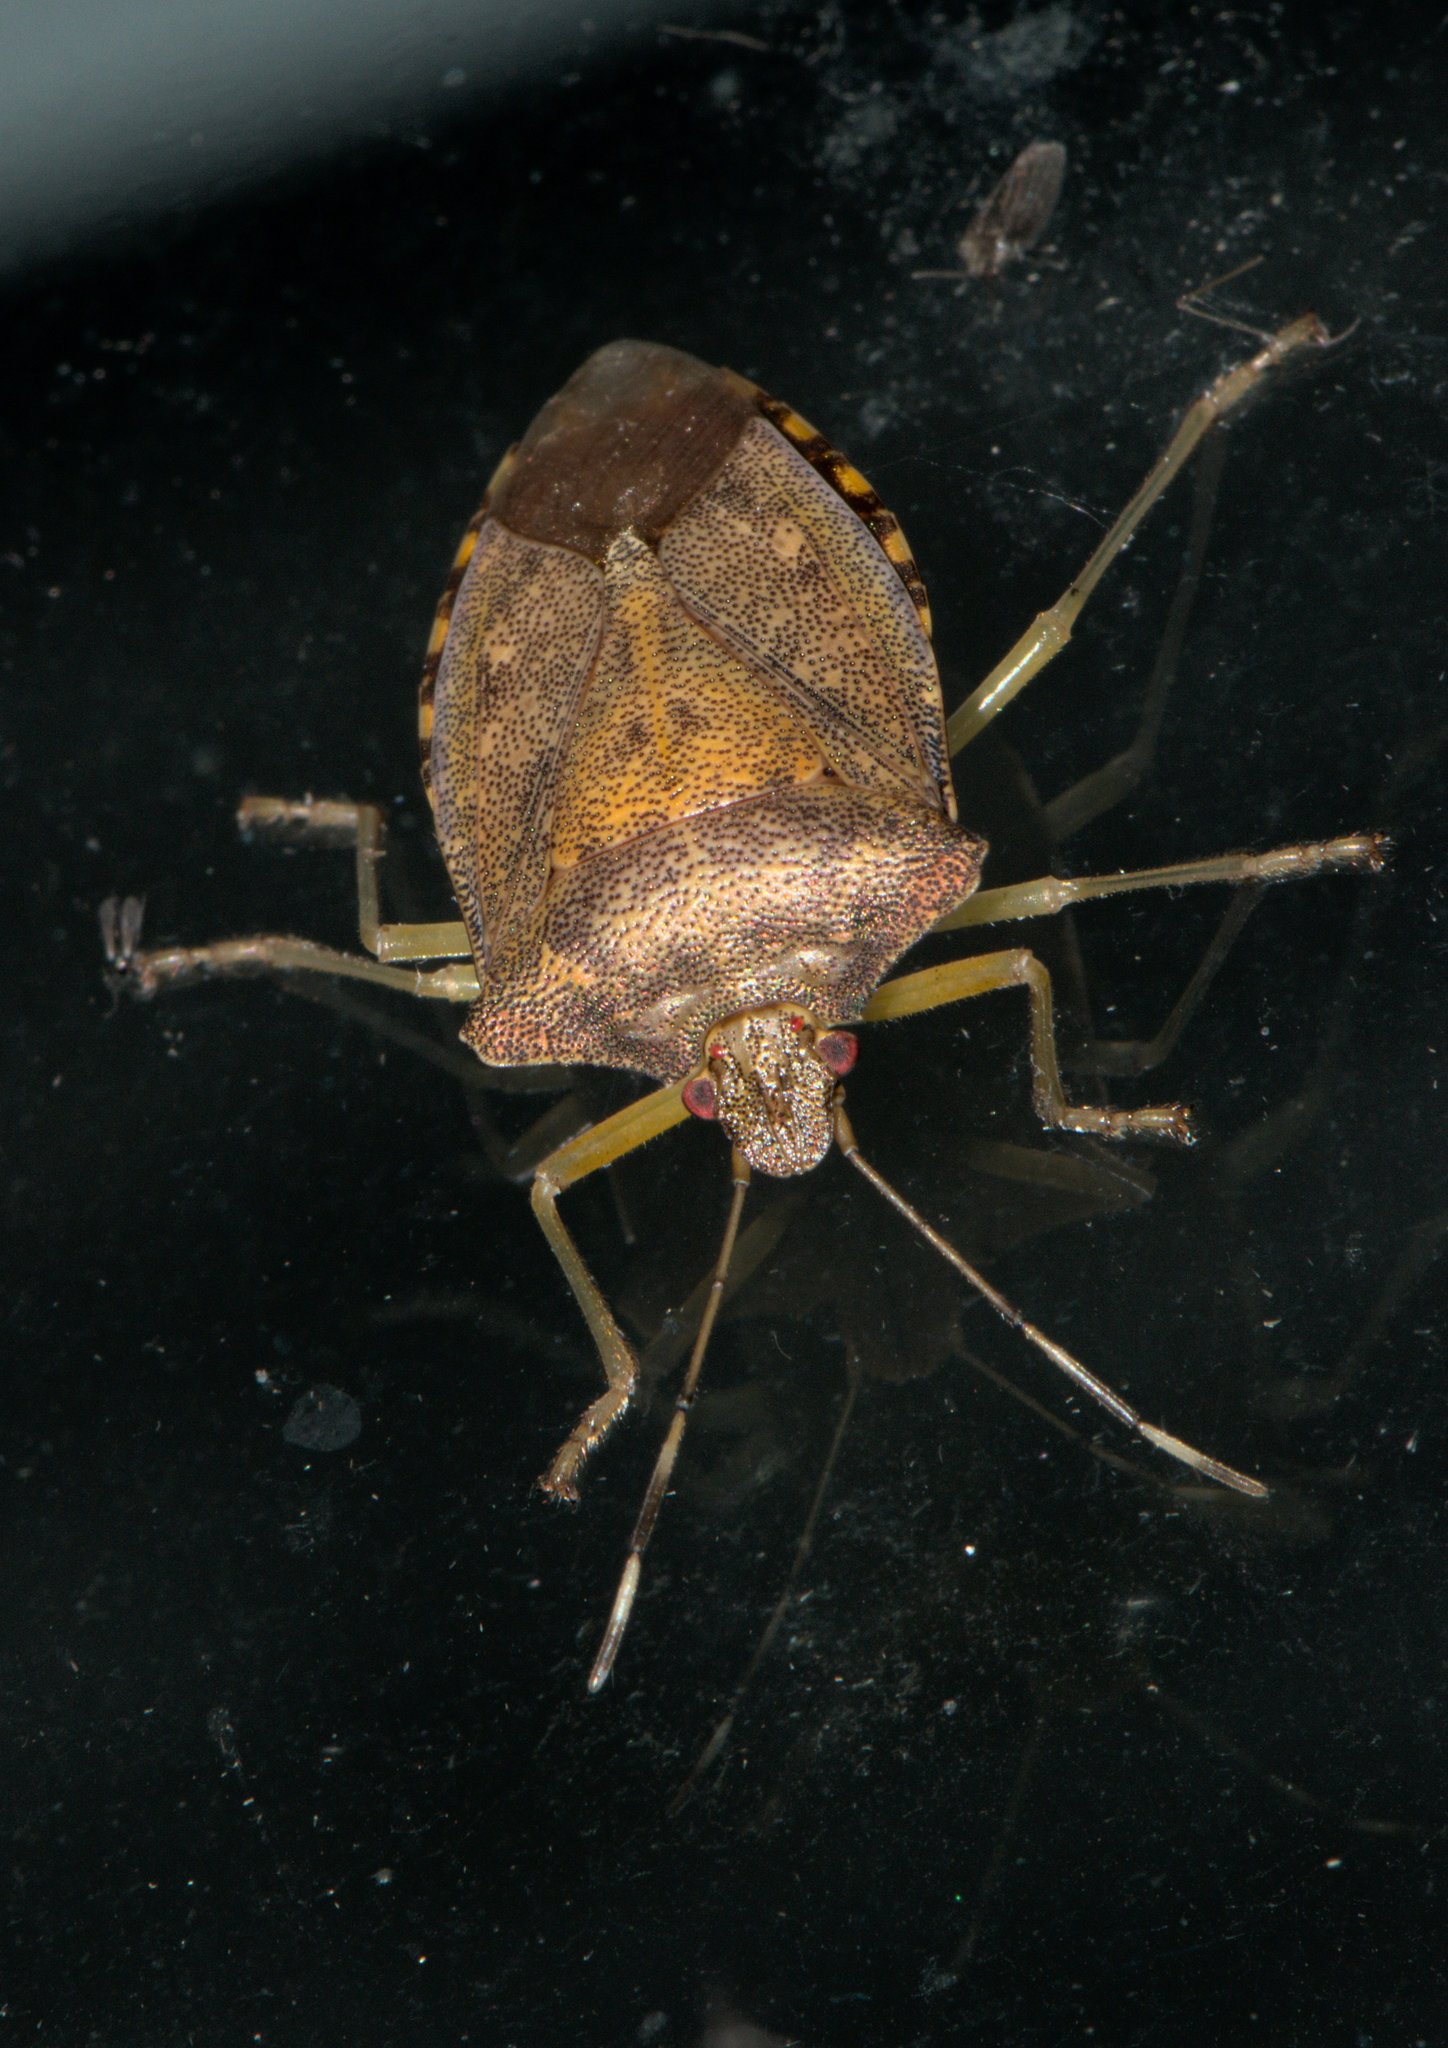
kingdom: Animalia
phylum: Arthropoda
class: Insecta
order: Hemiptera
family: Pentatomidae
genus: Pentatoma
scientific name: Pentatoma
